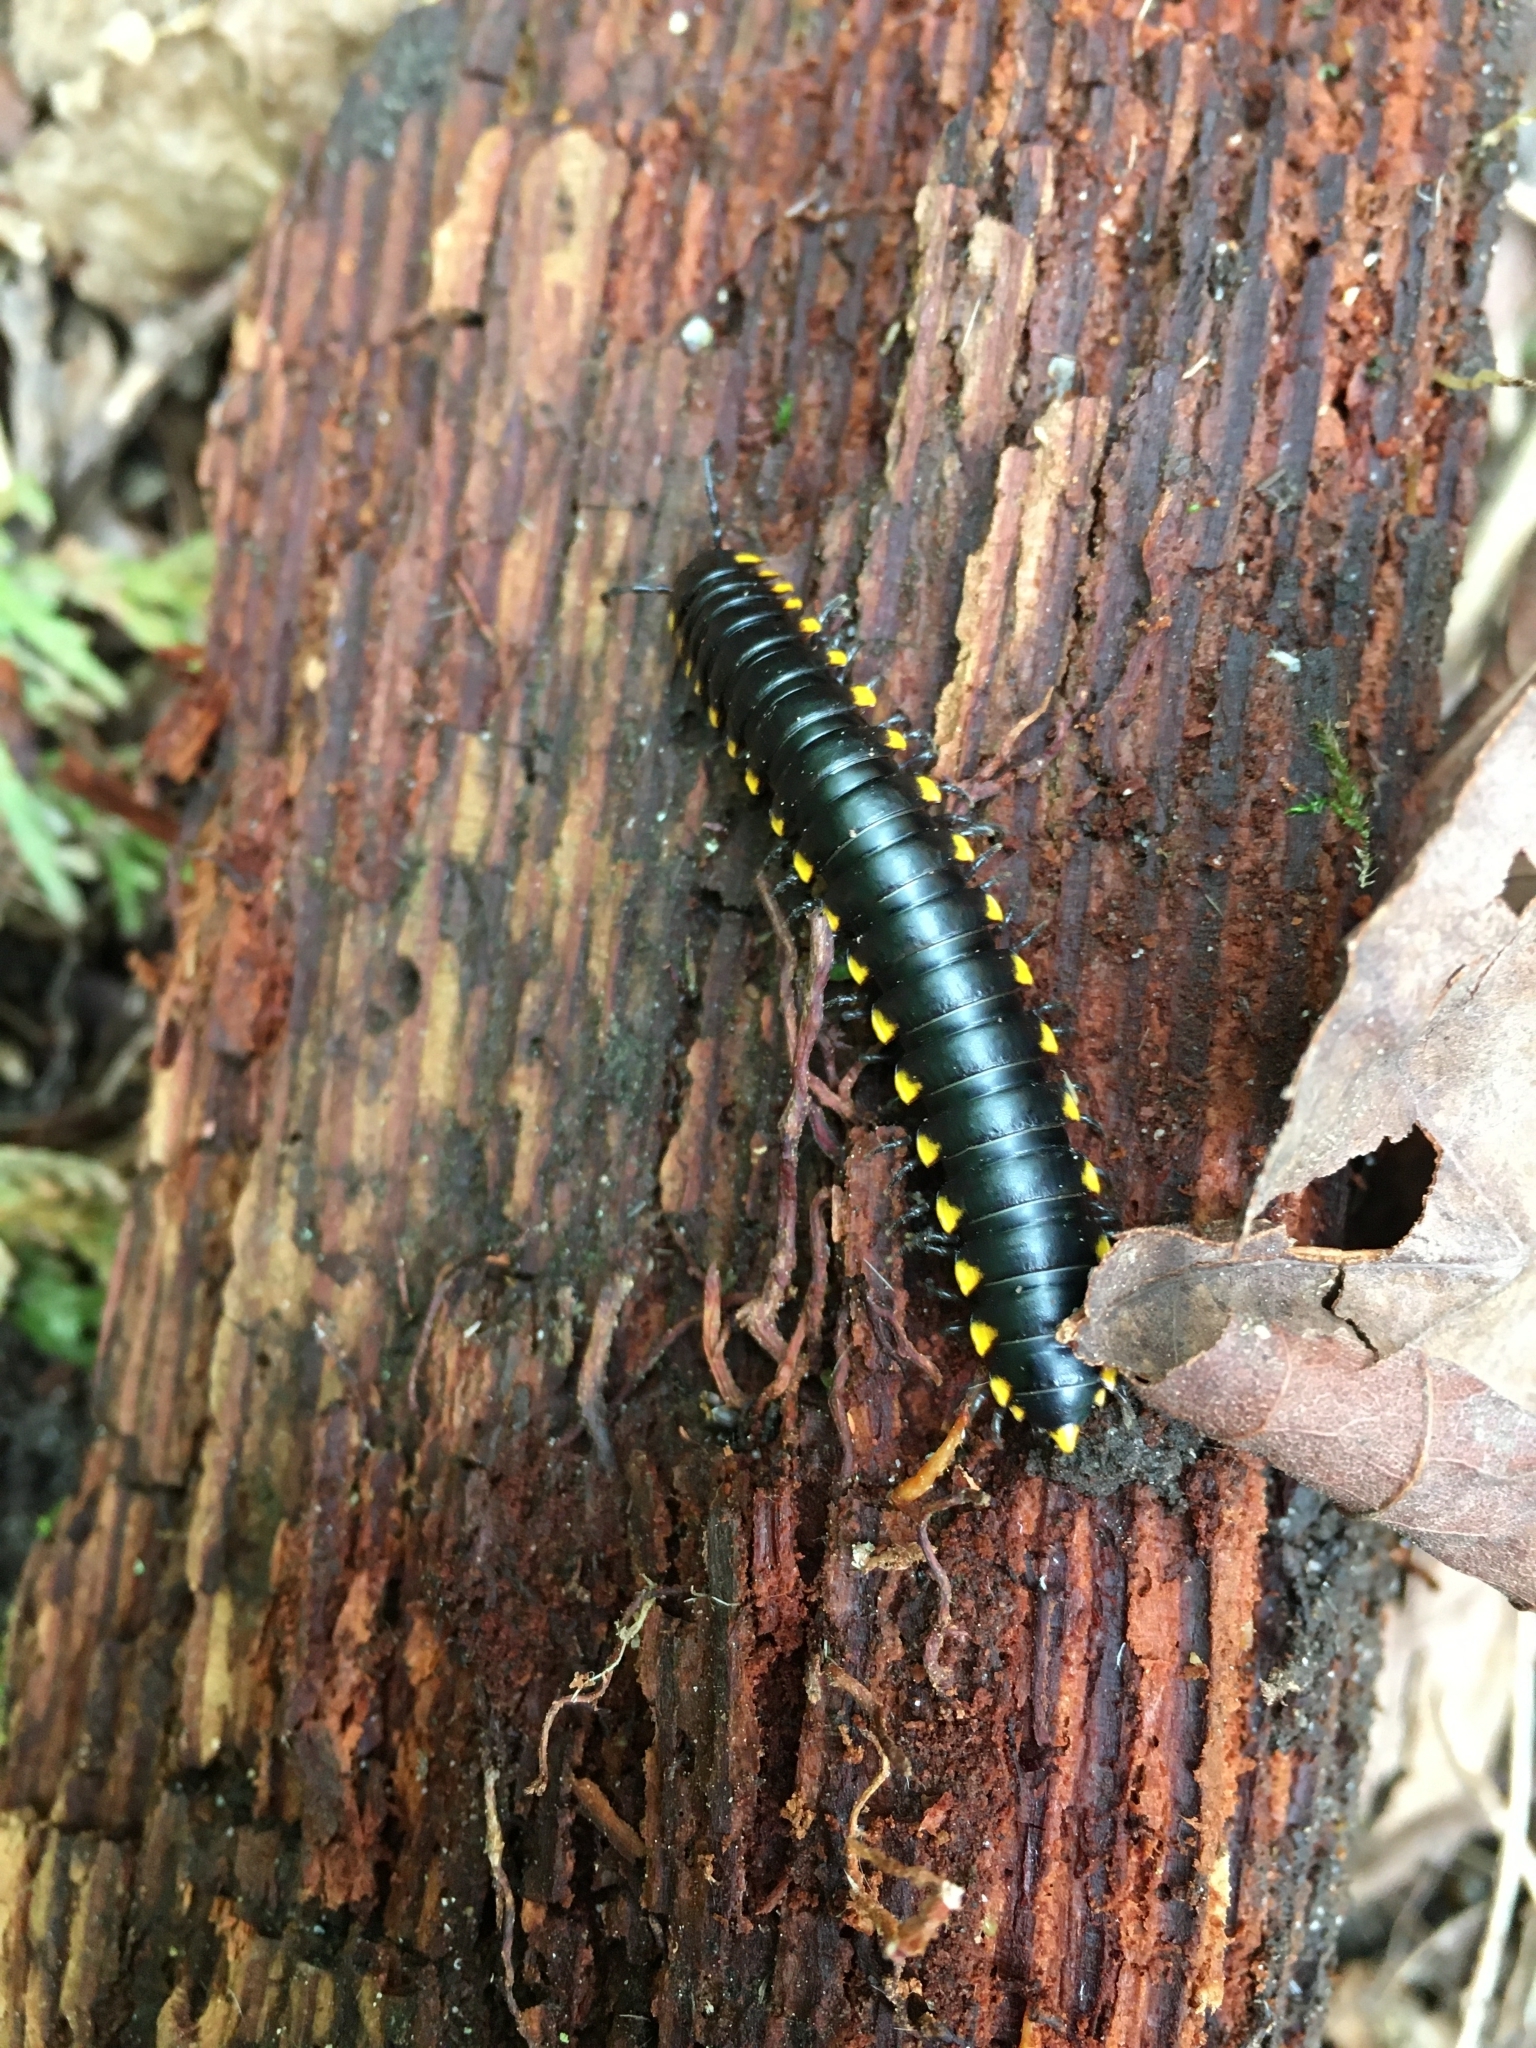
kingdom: Animalia
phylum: Arthropoda
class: Diplopoda
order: Polydesmida
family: Xystodesmidae
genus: Harpaphe
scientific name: Harpaphe haydeniana
